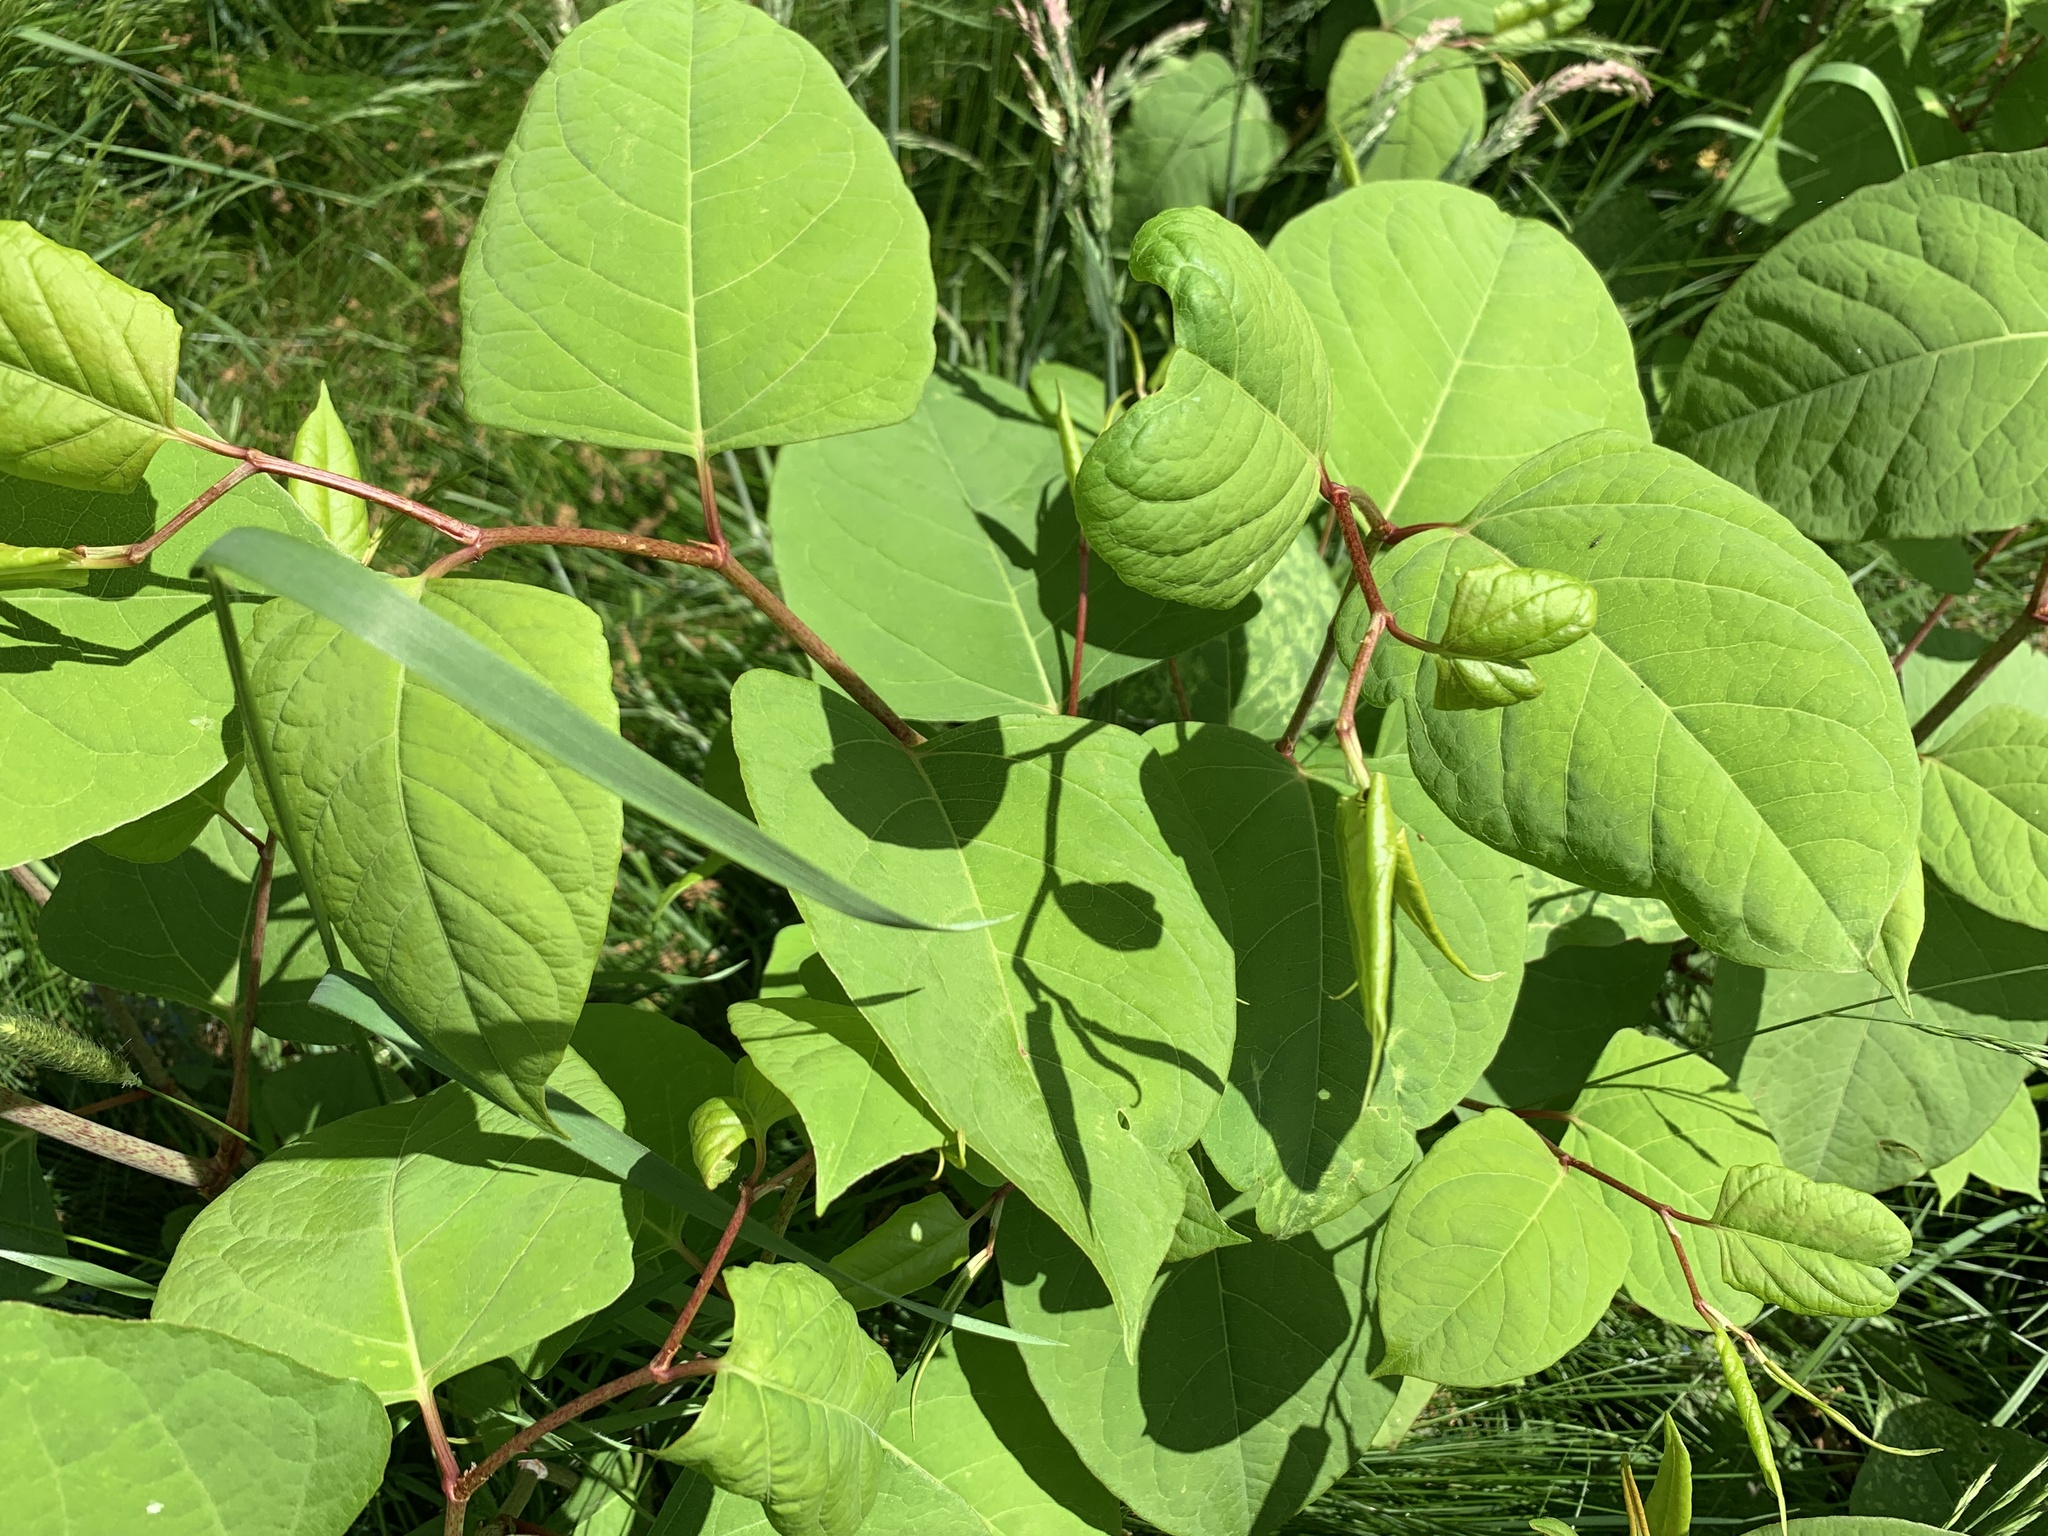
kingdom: Plantae
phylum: Tracheophyta
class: Magnoliopsida
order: Caryophyllales
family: Polygonaceae
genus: Reynoutria
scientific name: Reynoutria japonica
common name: Japanese knotweed
